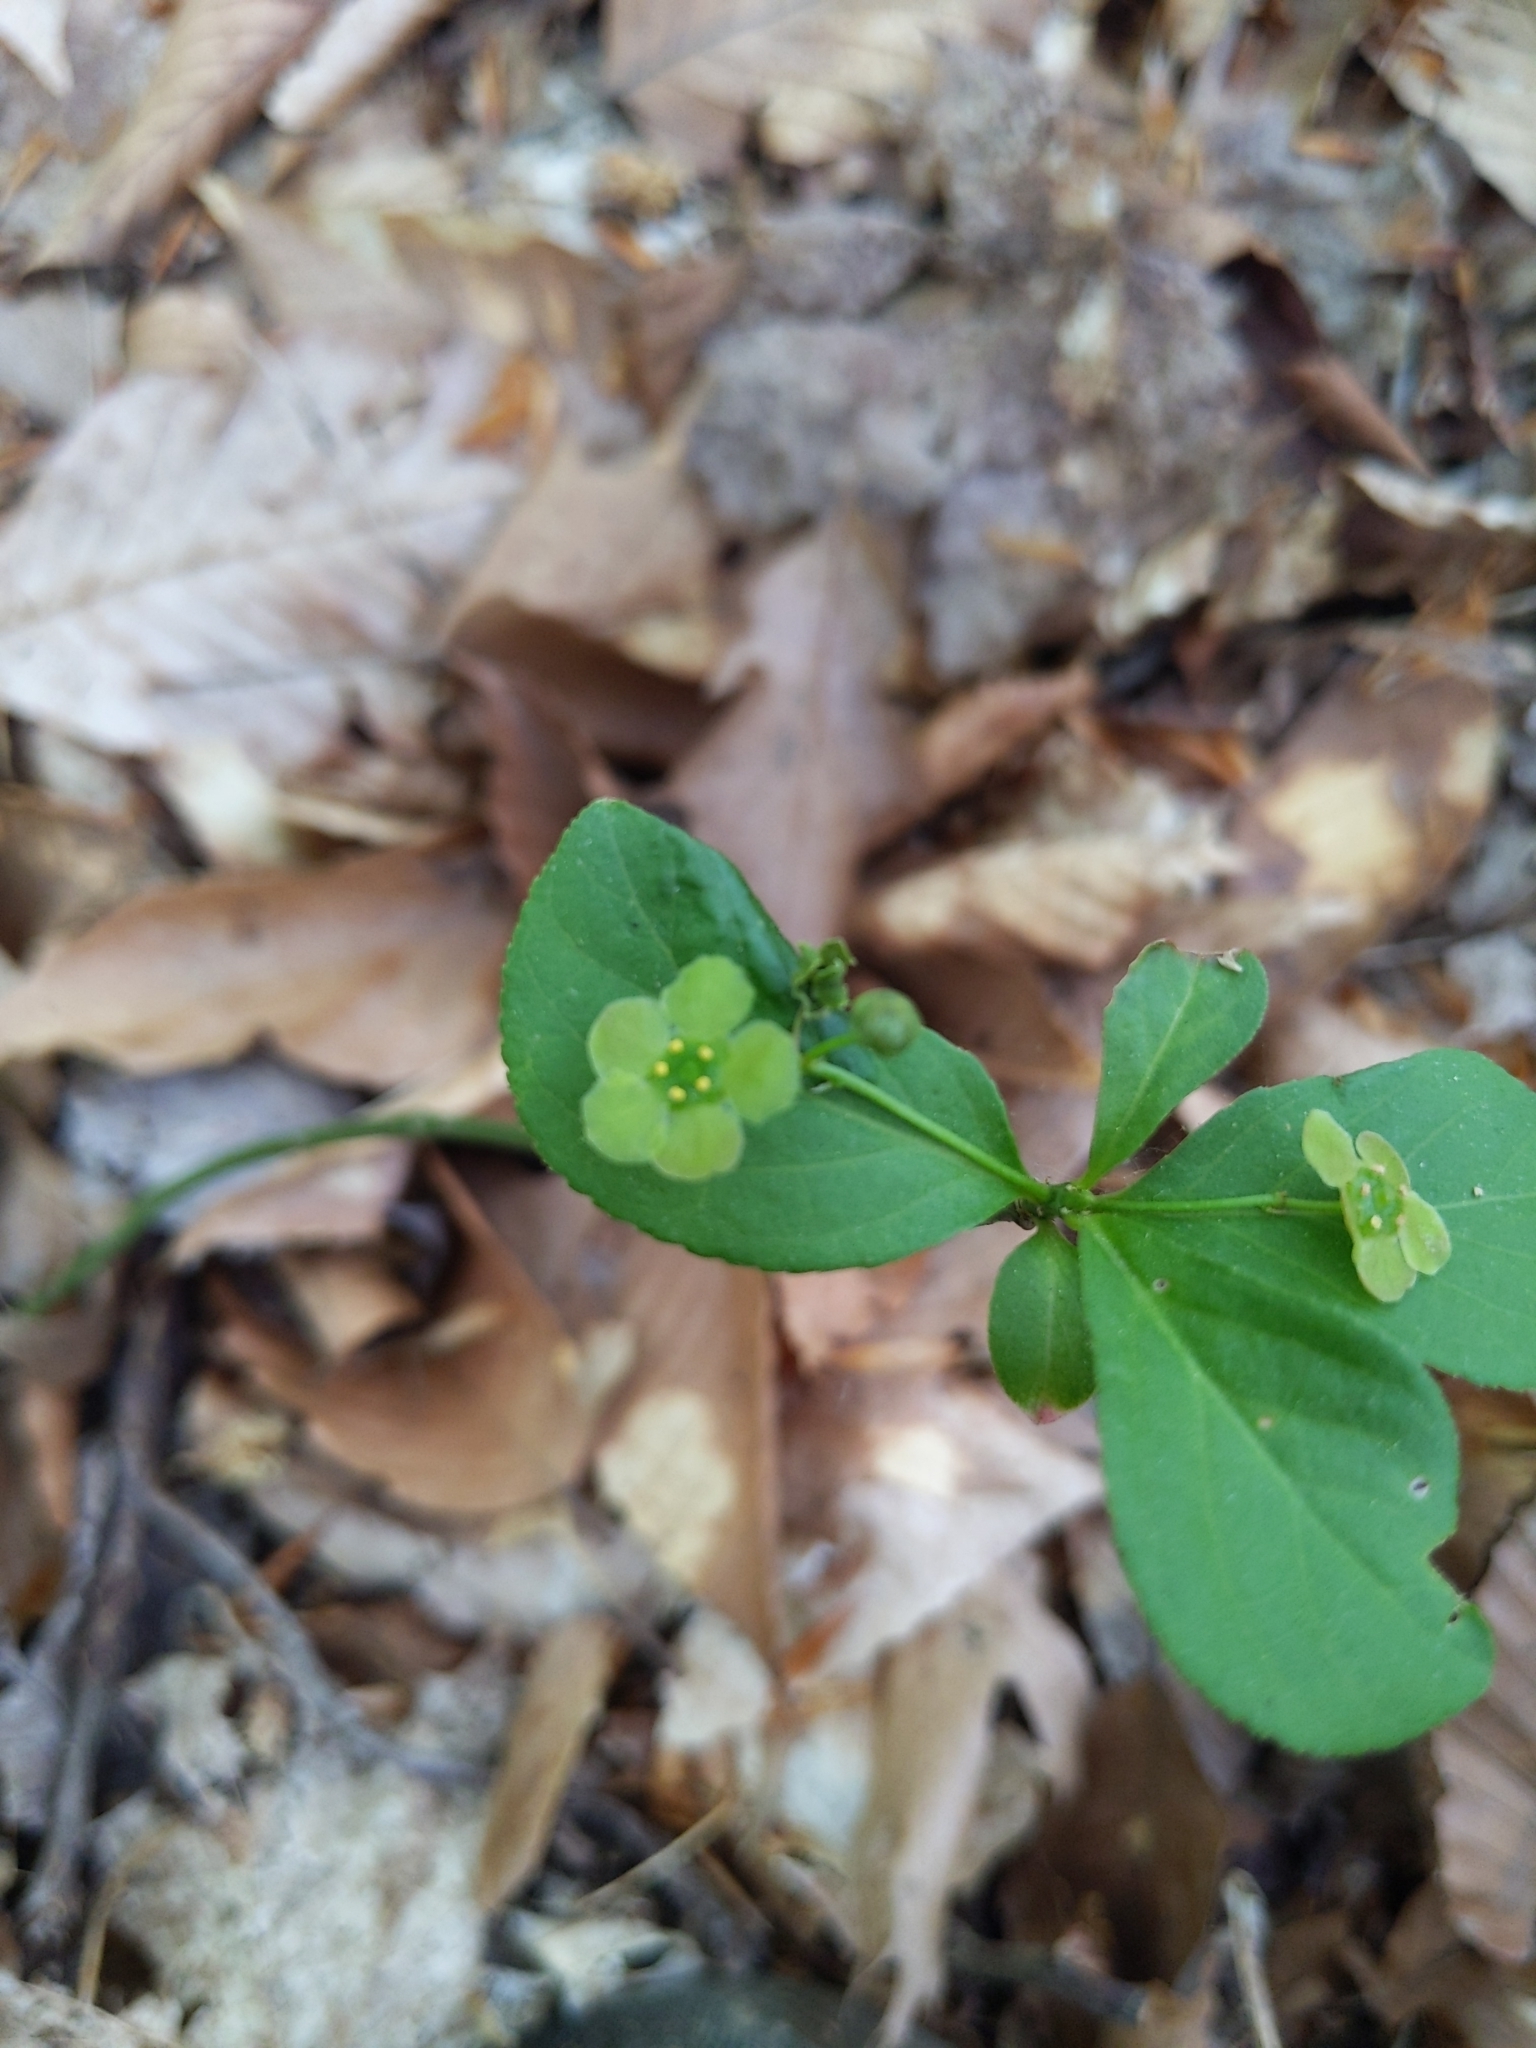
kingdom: Plantae
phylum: Tracheophyta
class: Magnoliopsida
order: Celastrales
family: Celastraceae
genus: Euonymus
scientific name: Euonymus obovatus
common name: Running strawberry-bush
